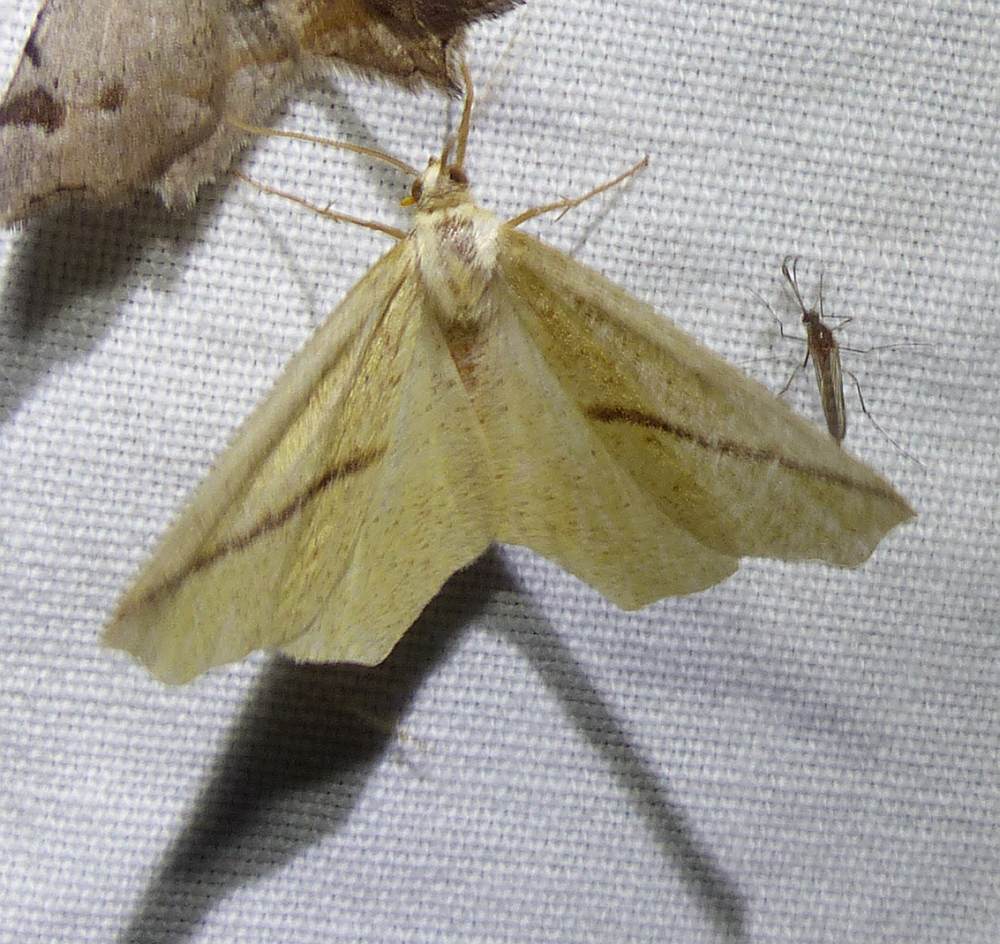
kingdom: Animalia
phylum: Arthropoda
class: Insecta
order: Lepidoptera
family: Geometridae
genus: Tetracis
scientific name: Tetracis crocallata
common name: Yellow slant-line
